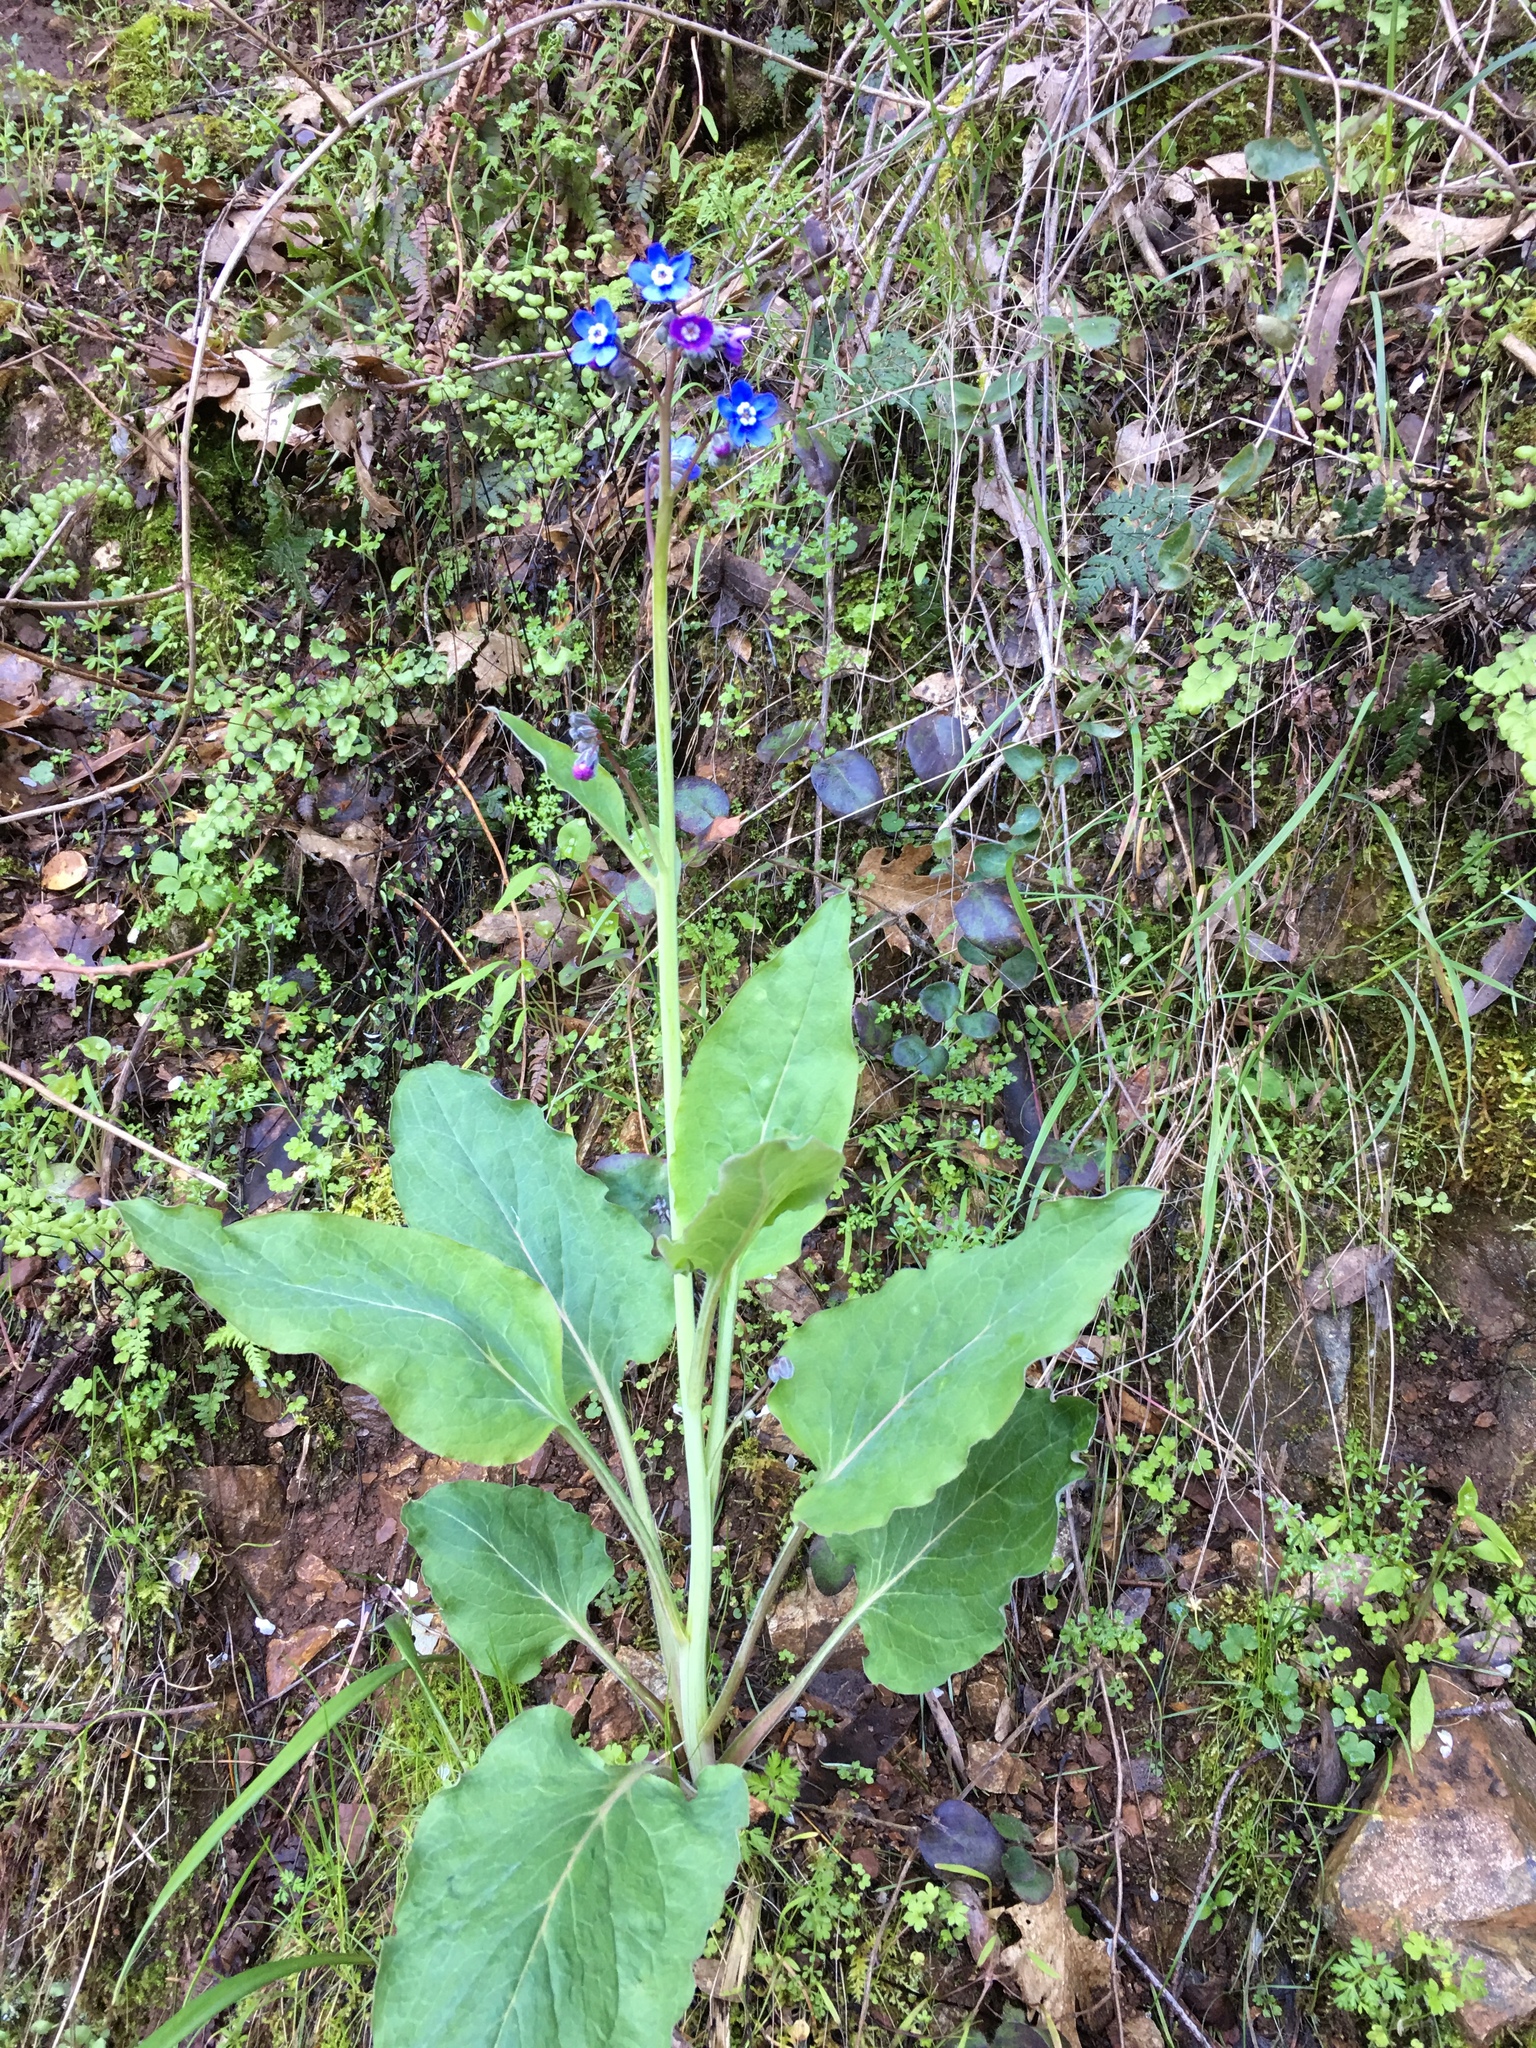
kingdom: Plantae
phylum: Tracheophyta
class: Magnoliopsida
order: Boraginales
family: Boraginaceae
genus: Adelinia
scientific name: Adelinia grande
